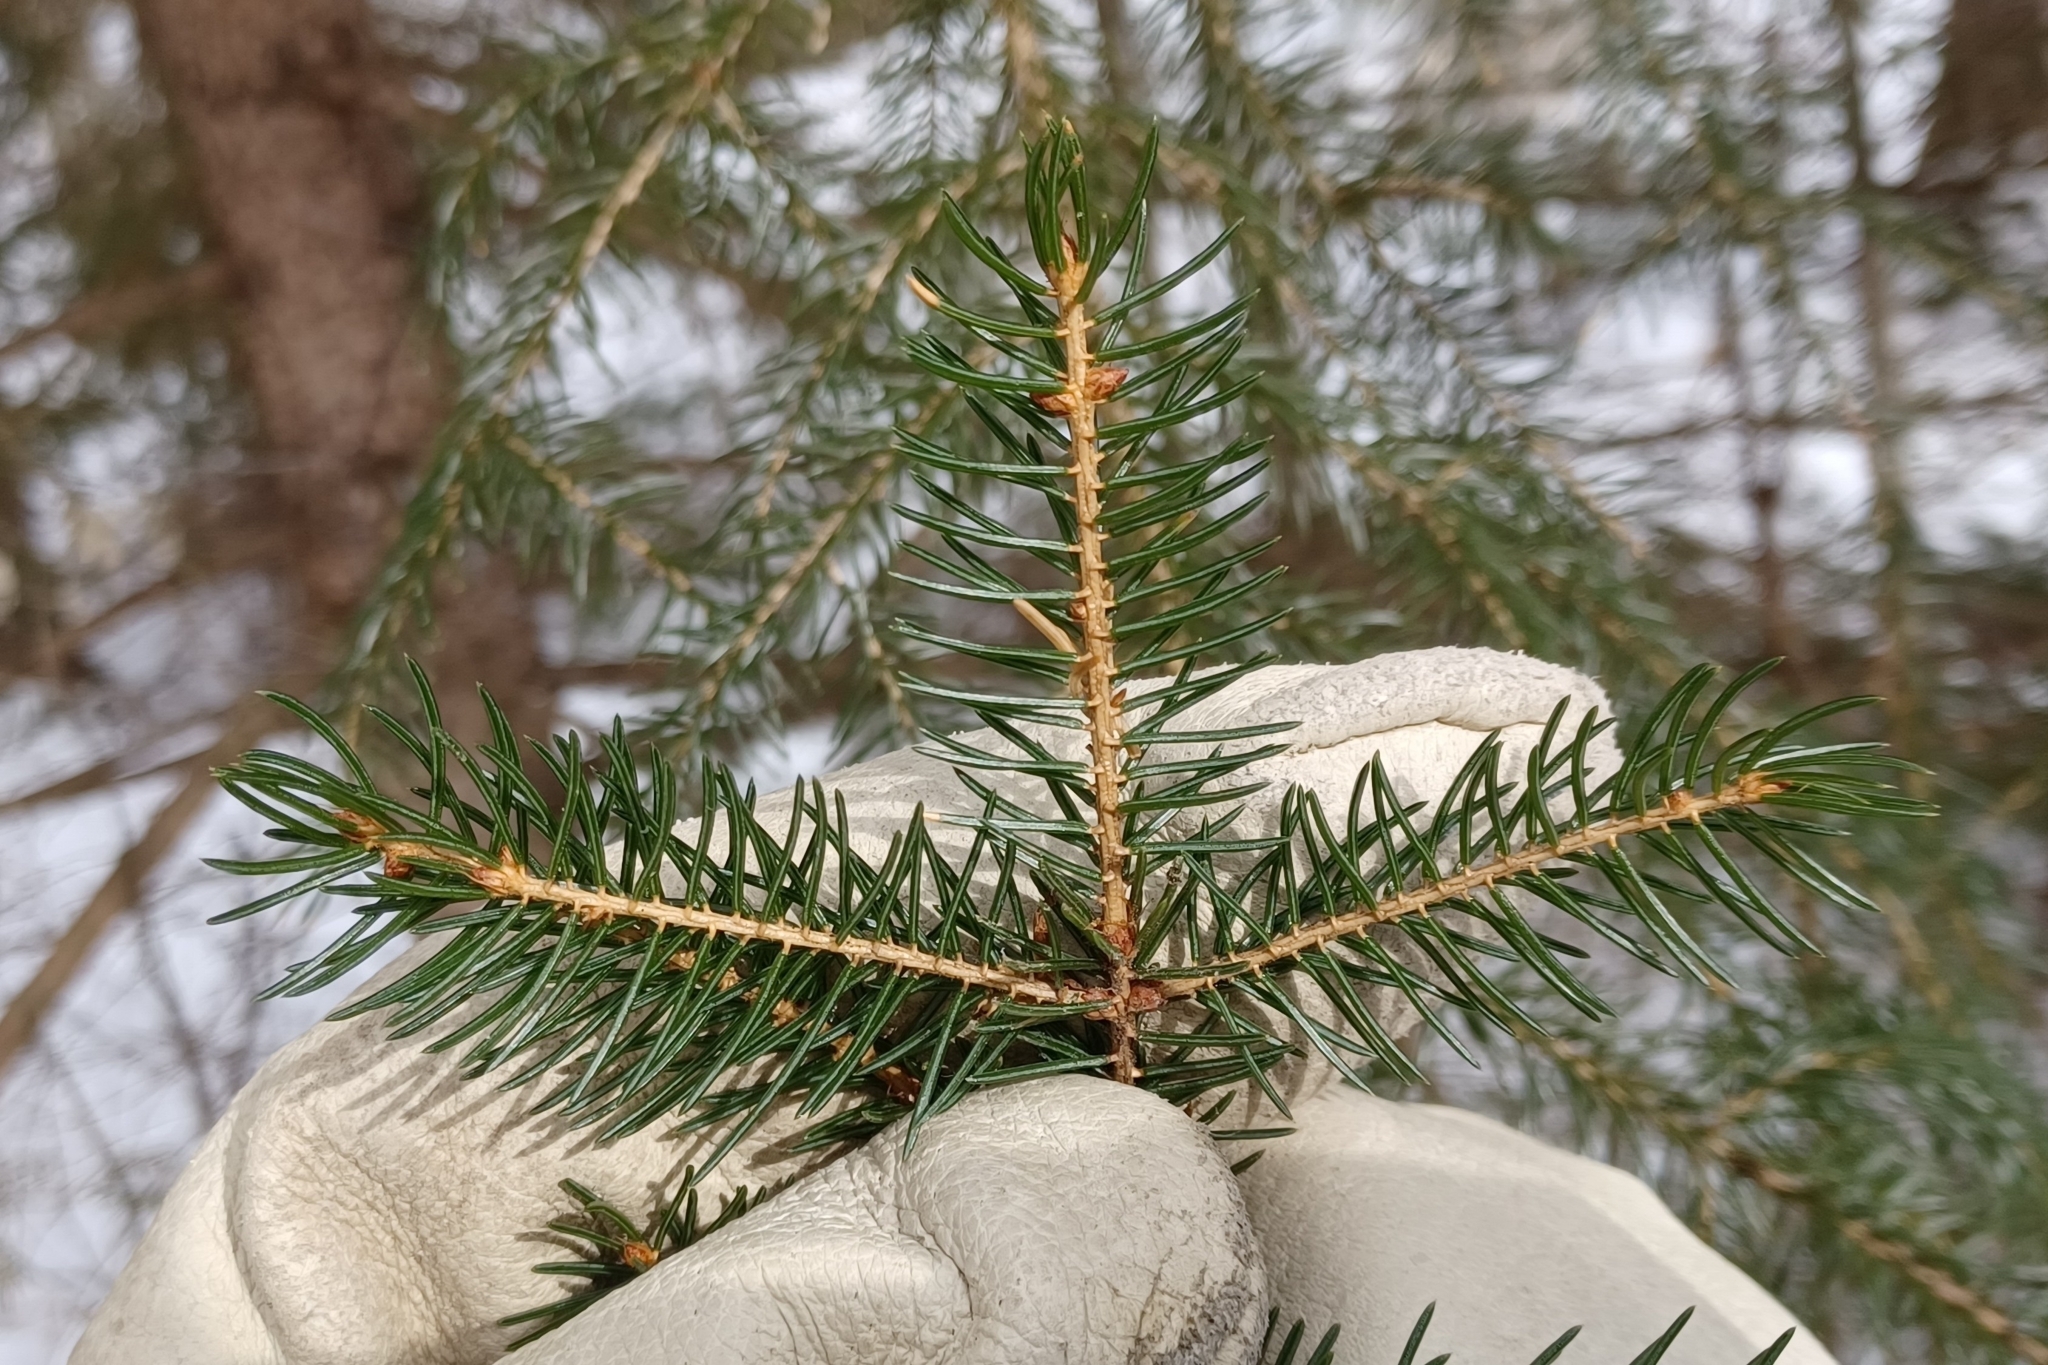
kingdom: Plantae
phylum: Tracheophyta
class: Pinopsida
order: Pinales
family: Pinaceae
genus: Picea
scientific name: Picea rubens
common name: Red spruce
